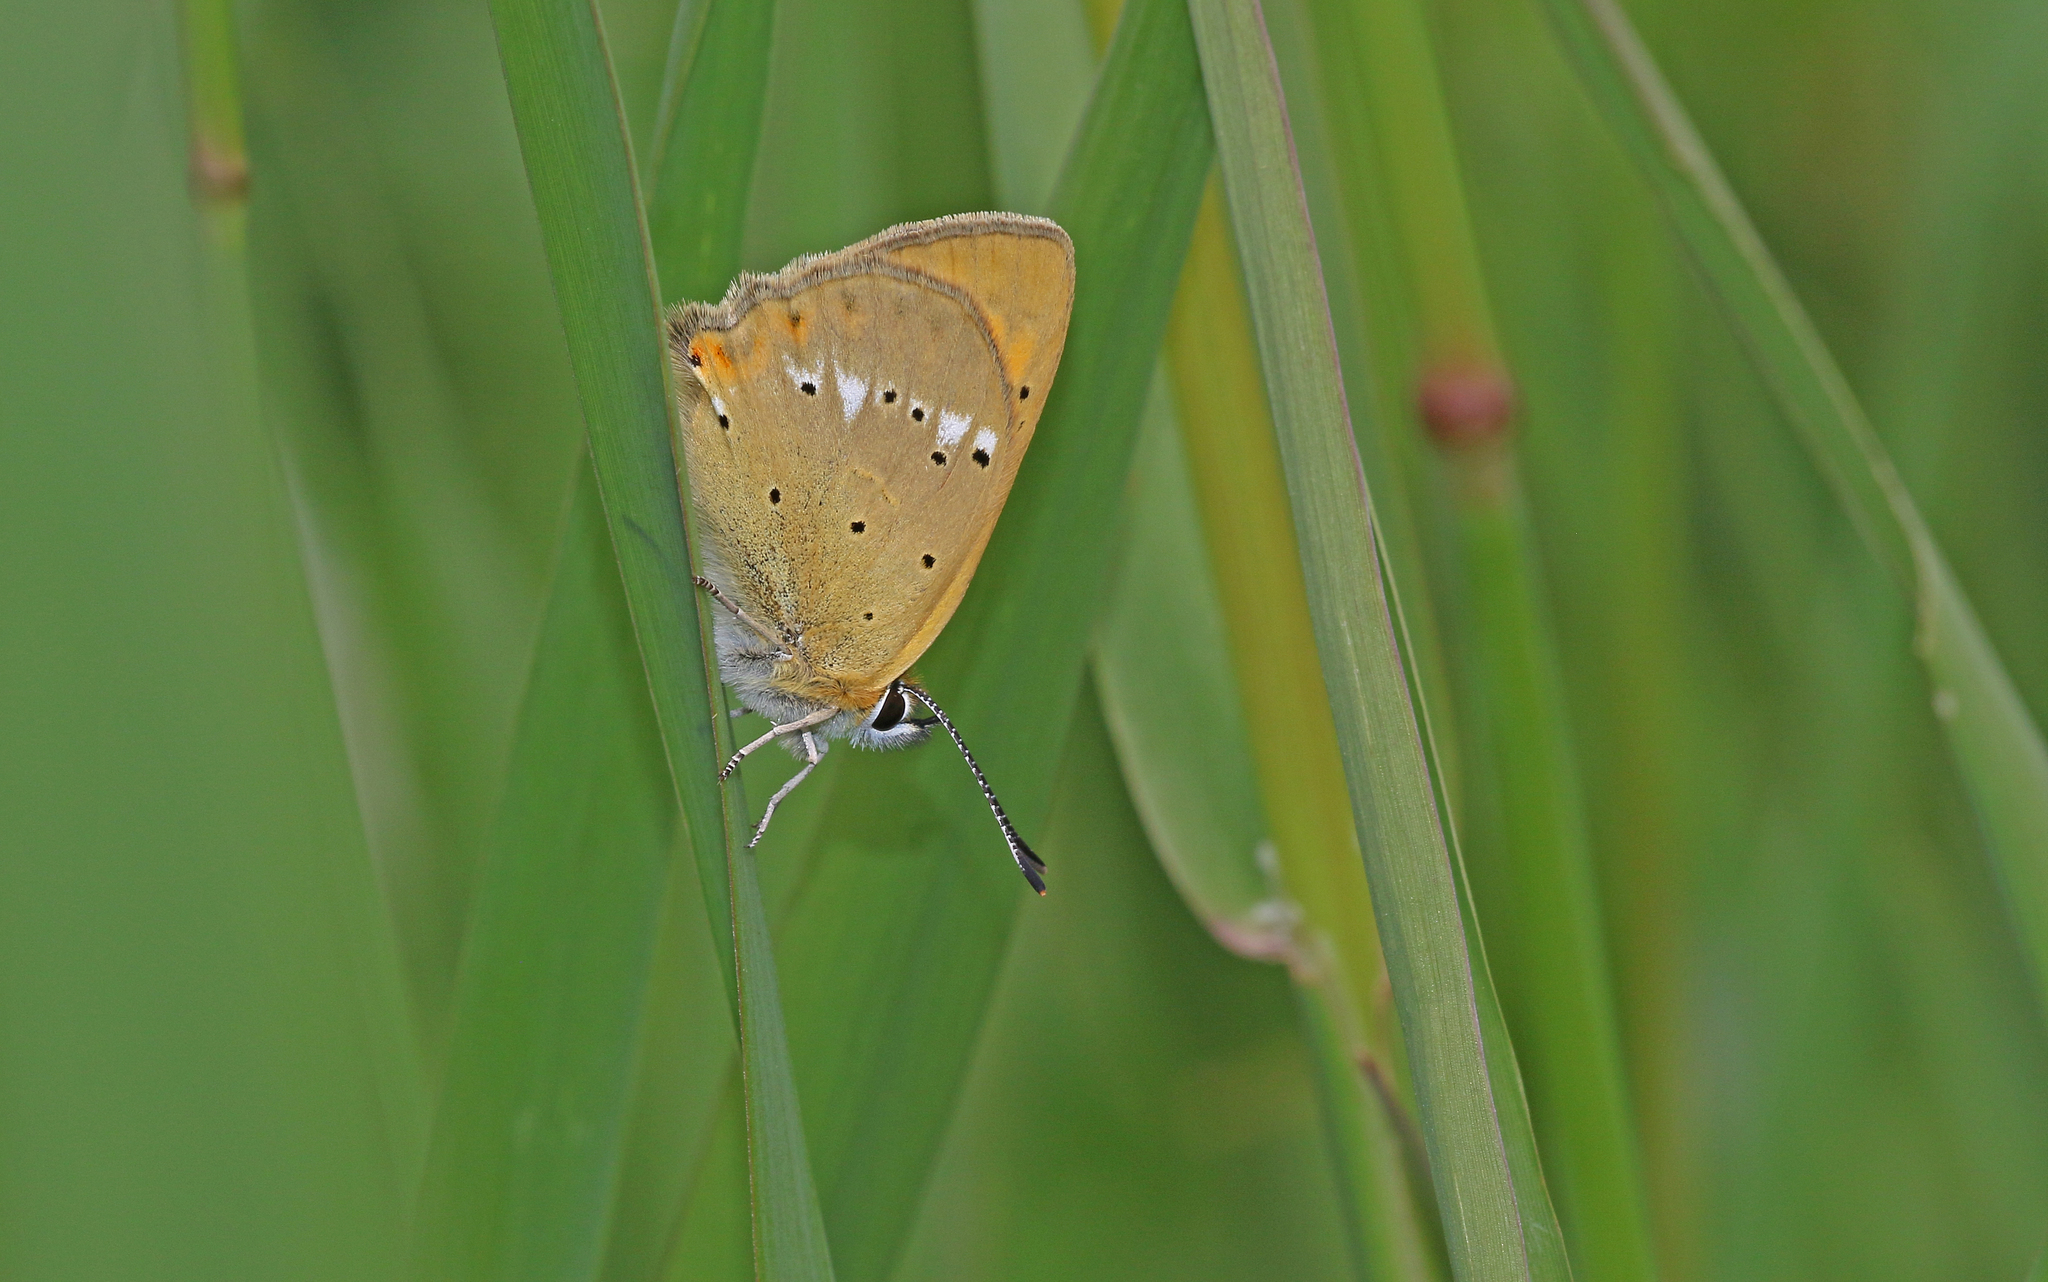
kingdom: Animalia
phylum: Arthropoda
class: Insecta
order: Lepidoptera
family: Lycaenidae
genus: Lycaena
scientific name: Lycaena virgaureae
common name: Scarce copper
